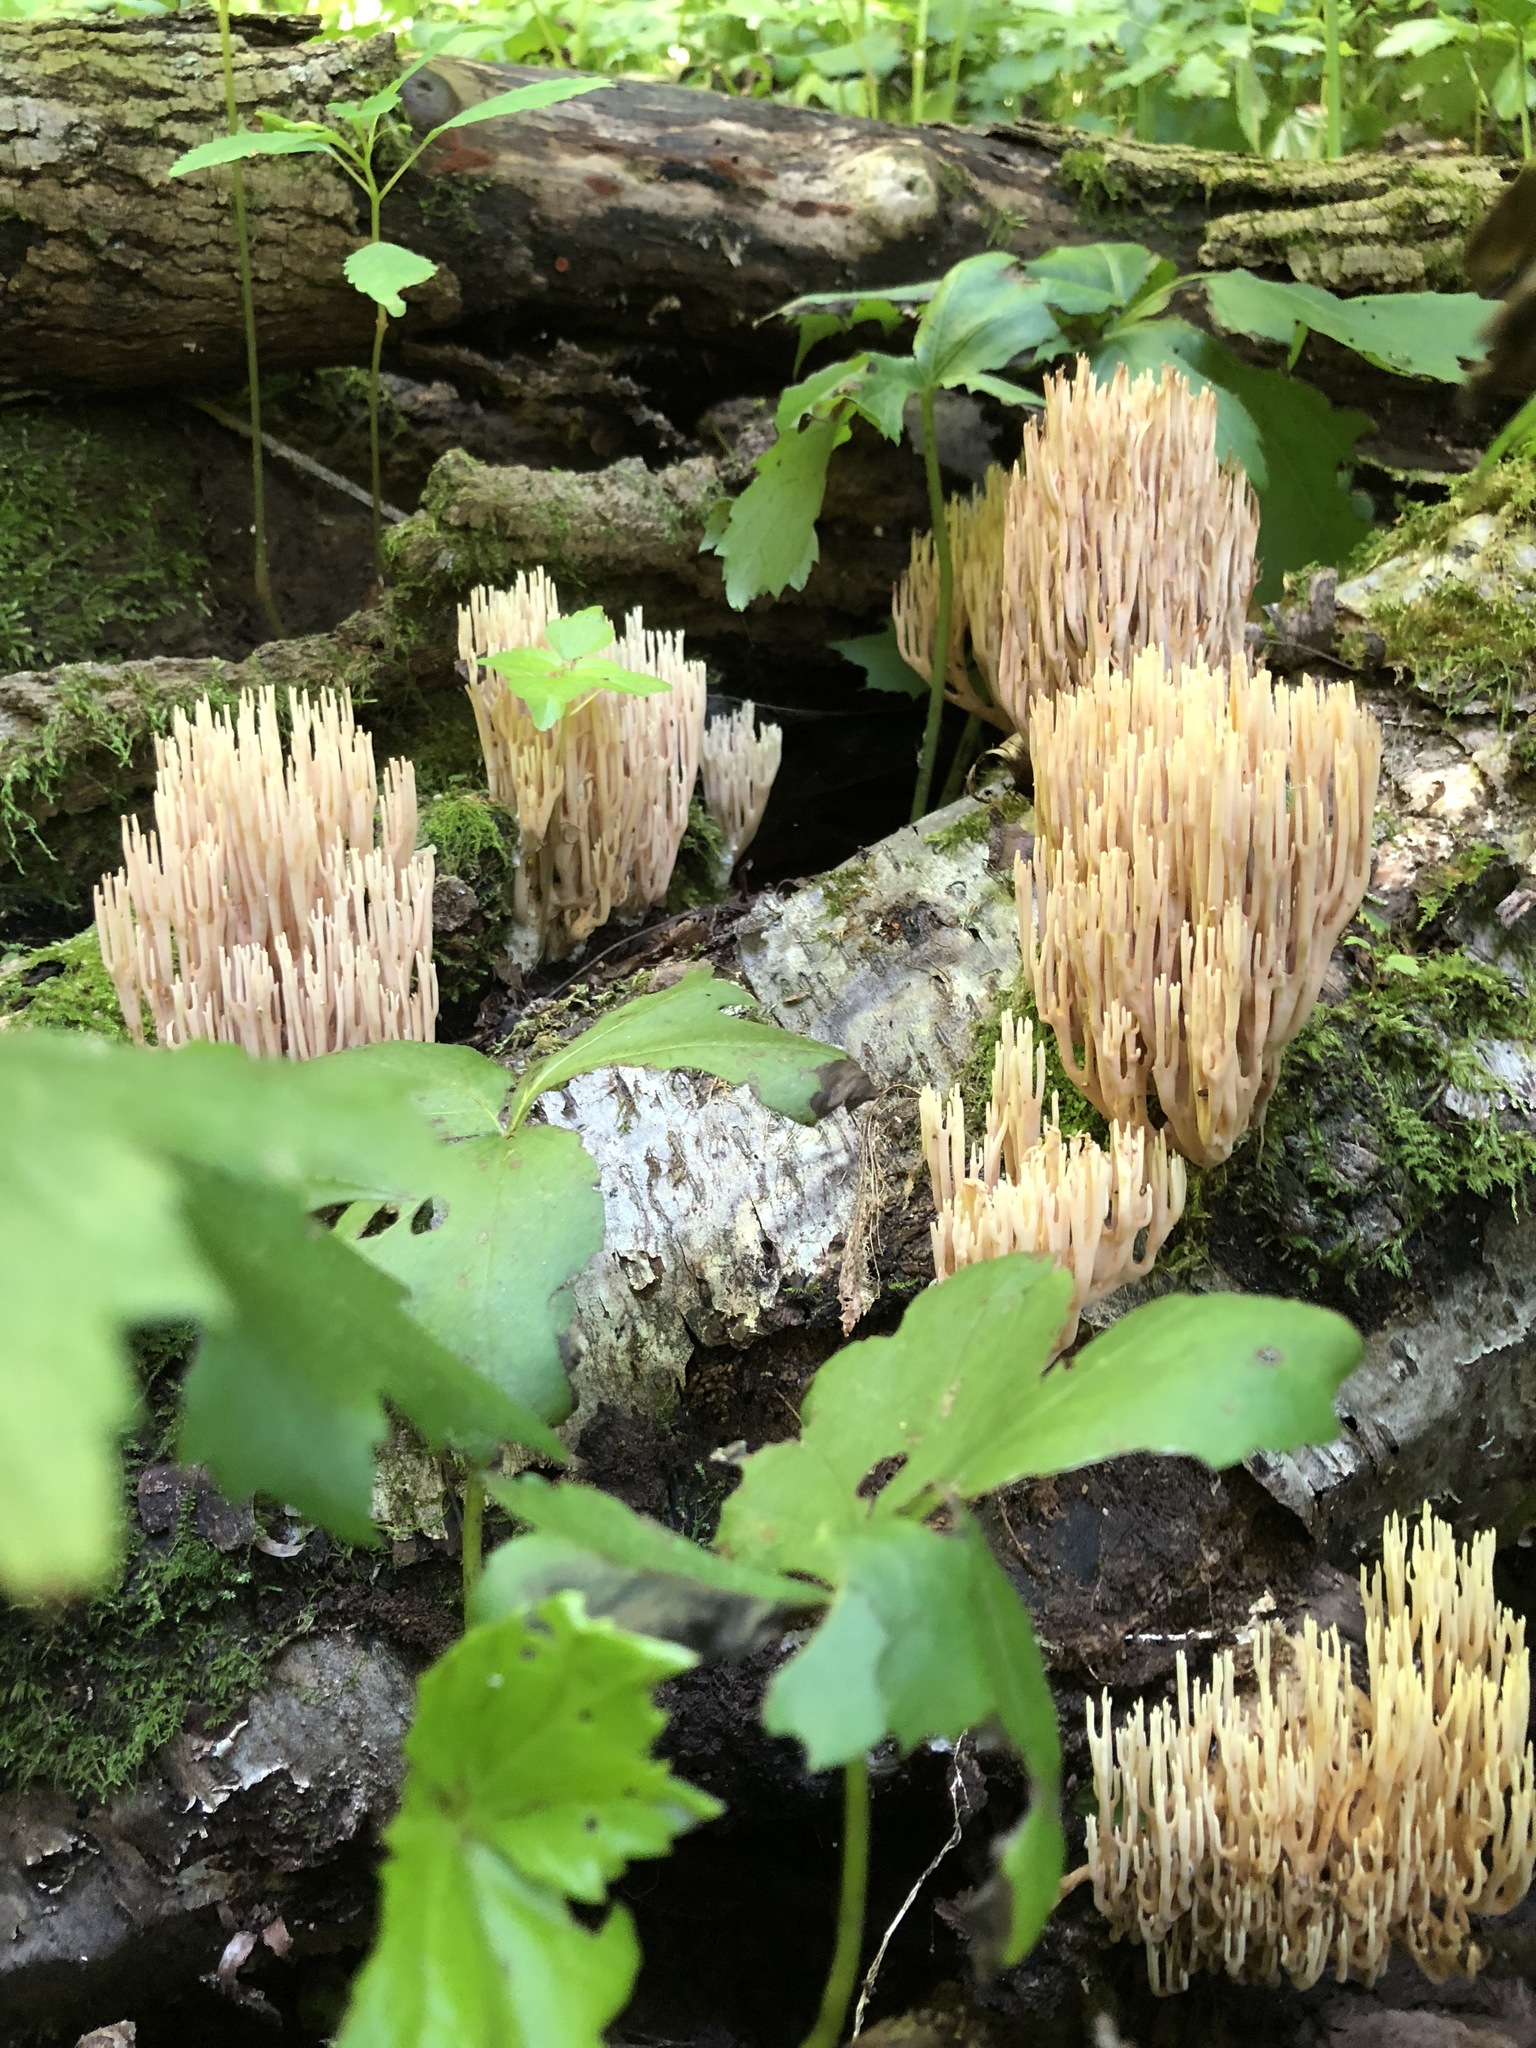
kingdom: Fungi
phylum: Basidiomycota
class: Agaricomycetes
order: Gomphales
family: Gomphaceae
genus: Ramaria
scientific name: Ramaria stricta
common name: Upright coral
